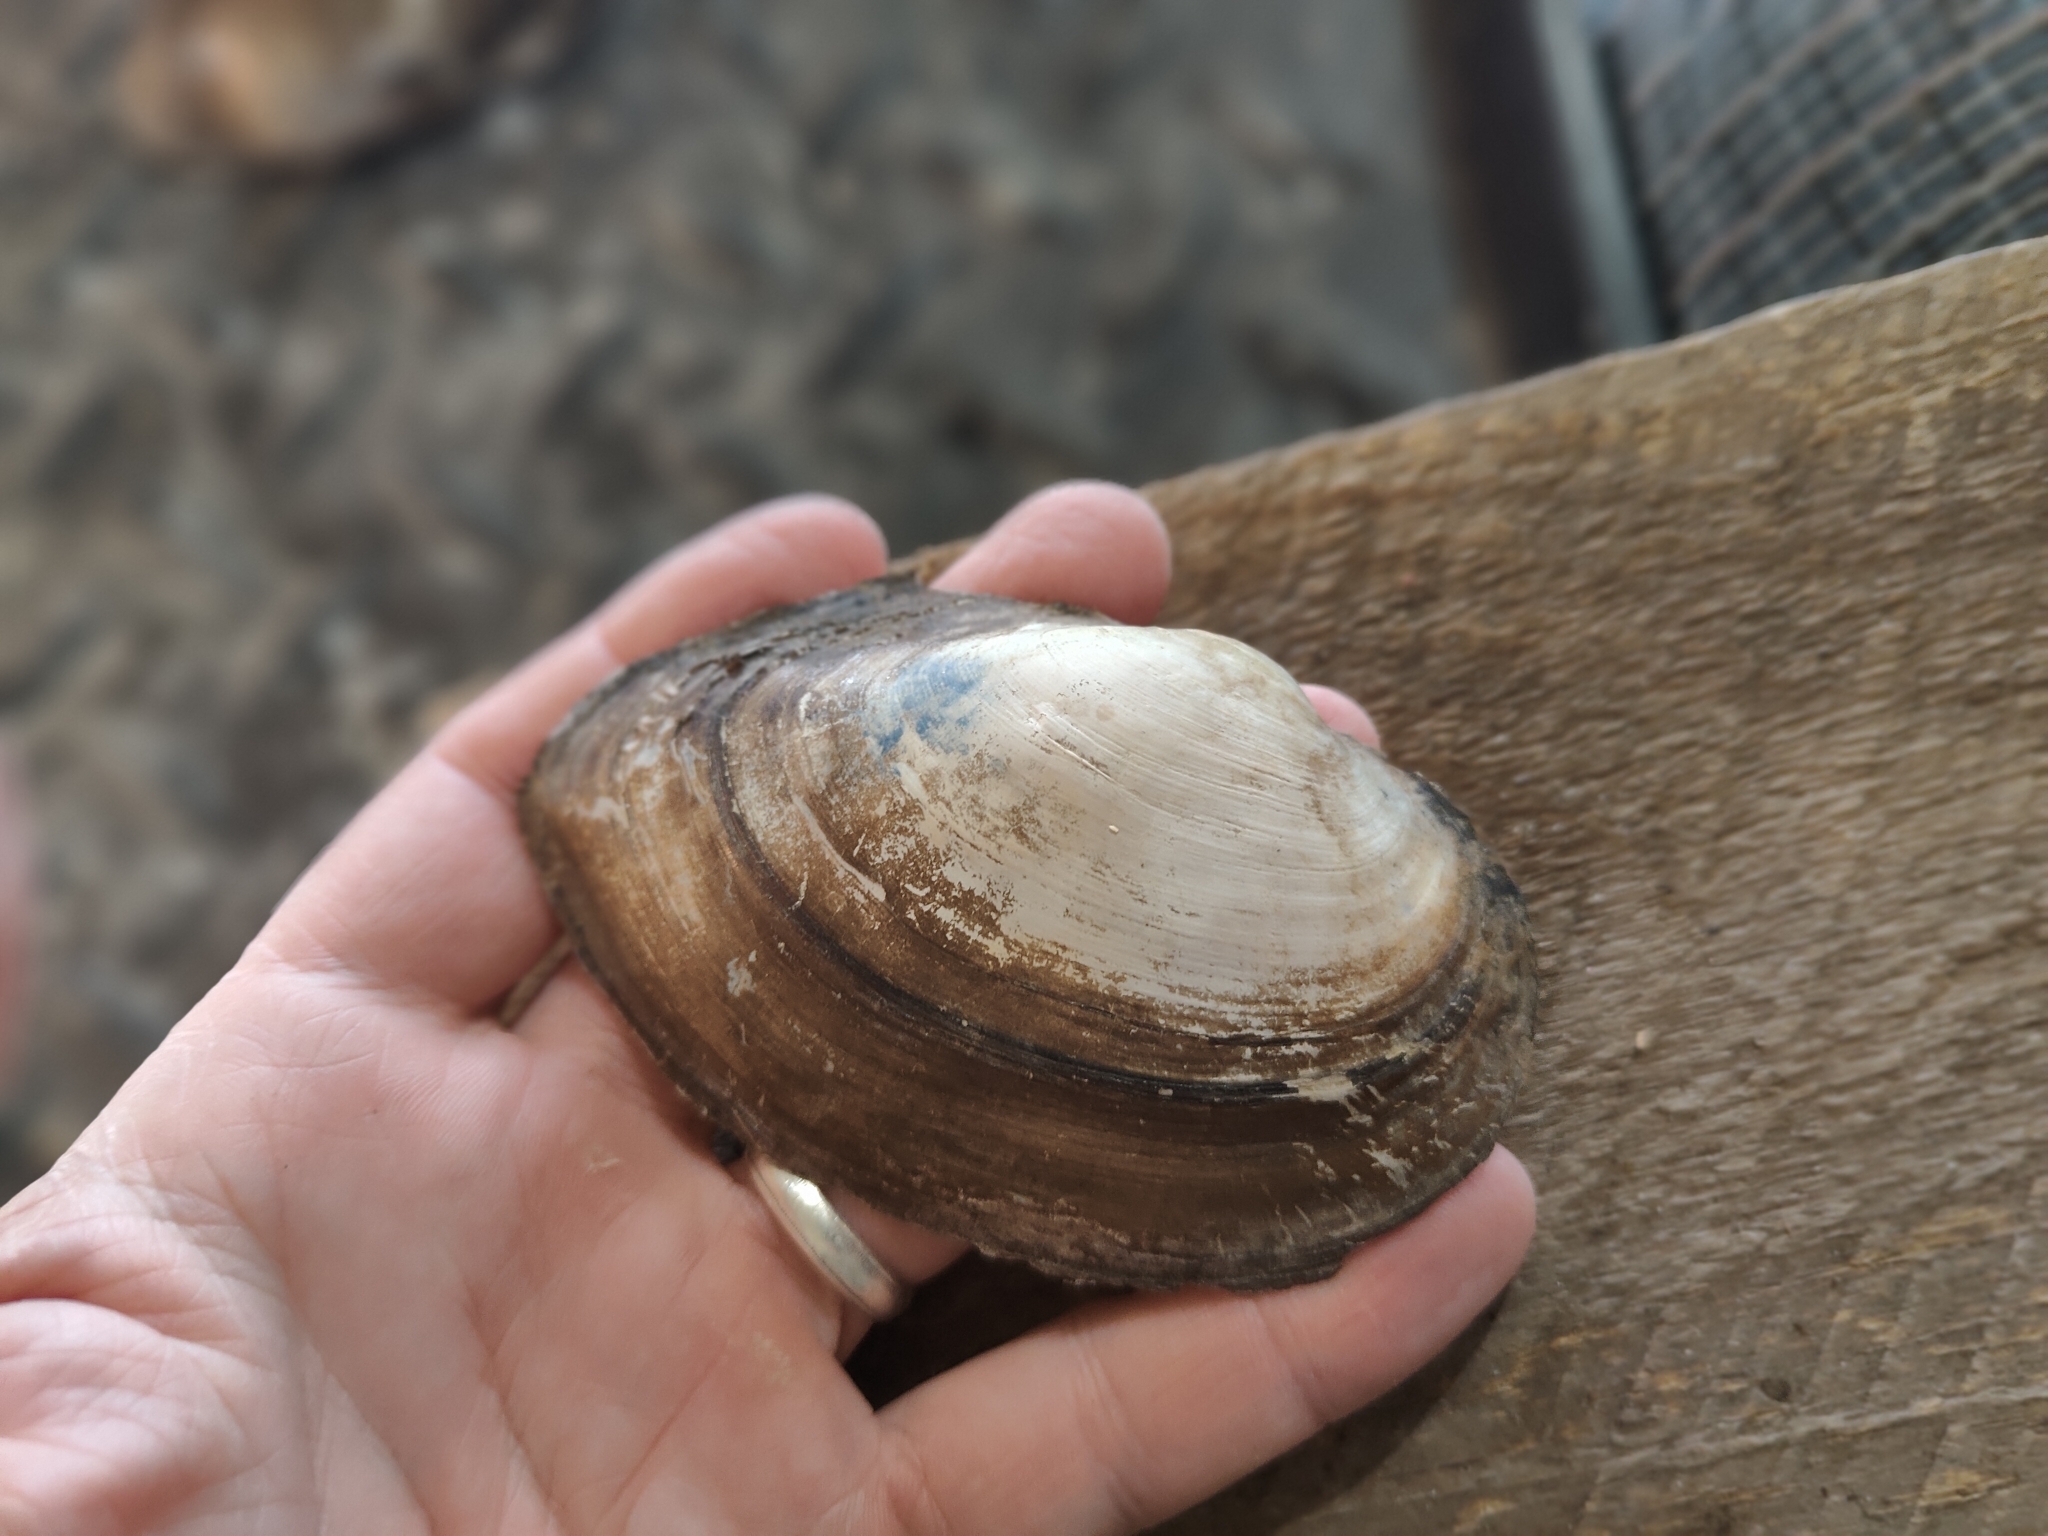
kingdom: Animalia
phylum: Mollusca
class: Bivalvia
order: Unionida
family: Unionidae
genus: Pyganodon
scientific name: Pyganodon grandis
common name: Giant floater
